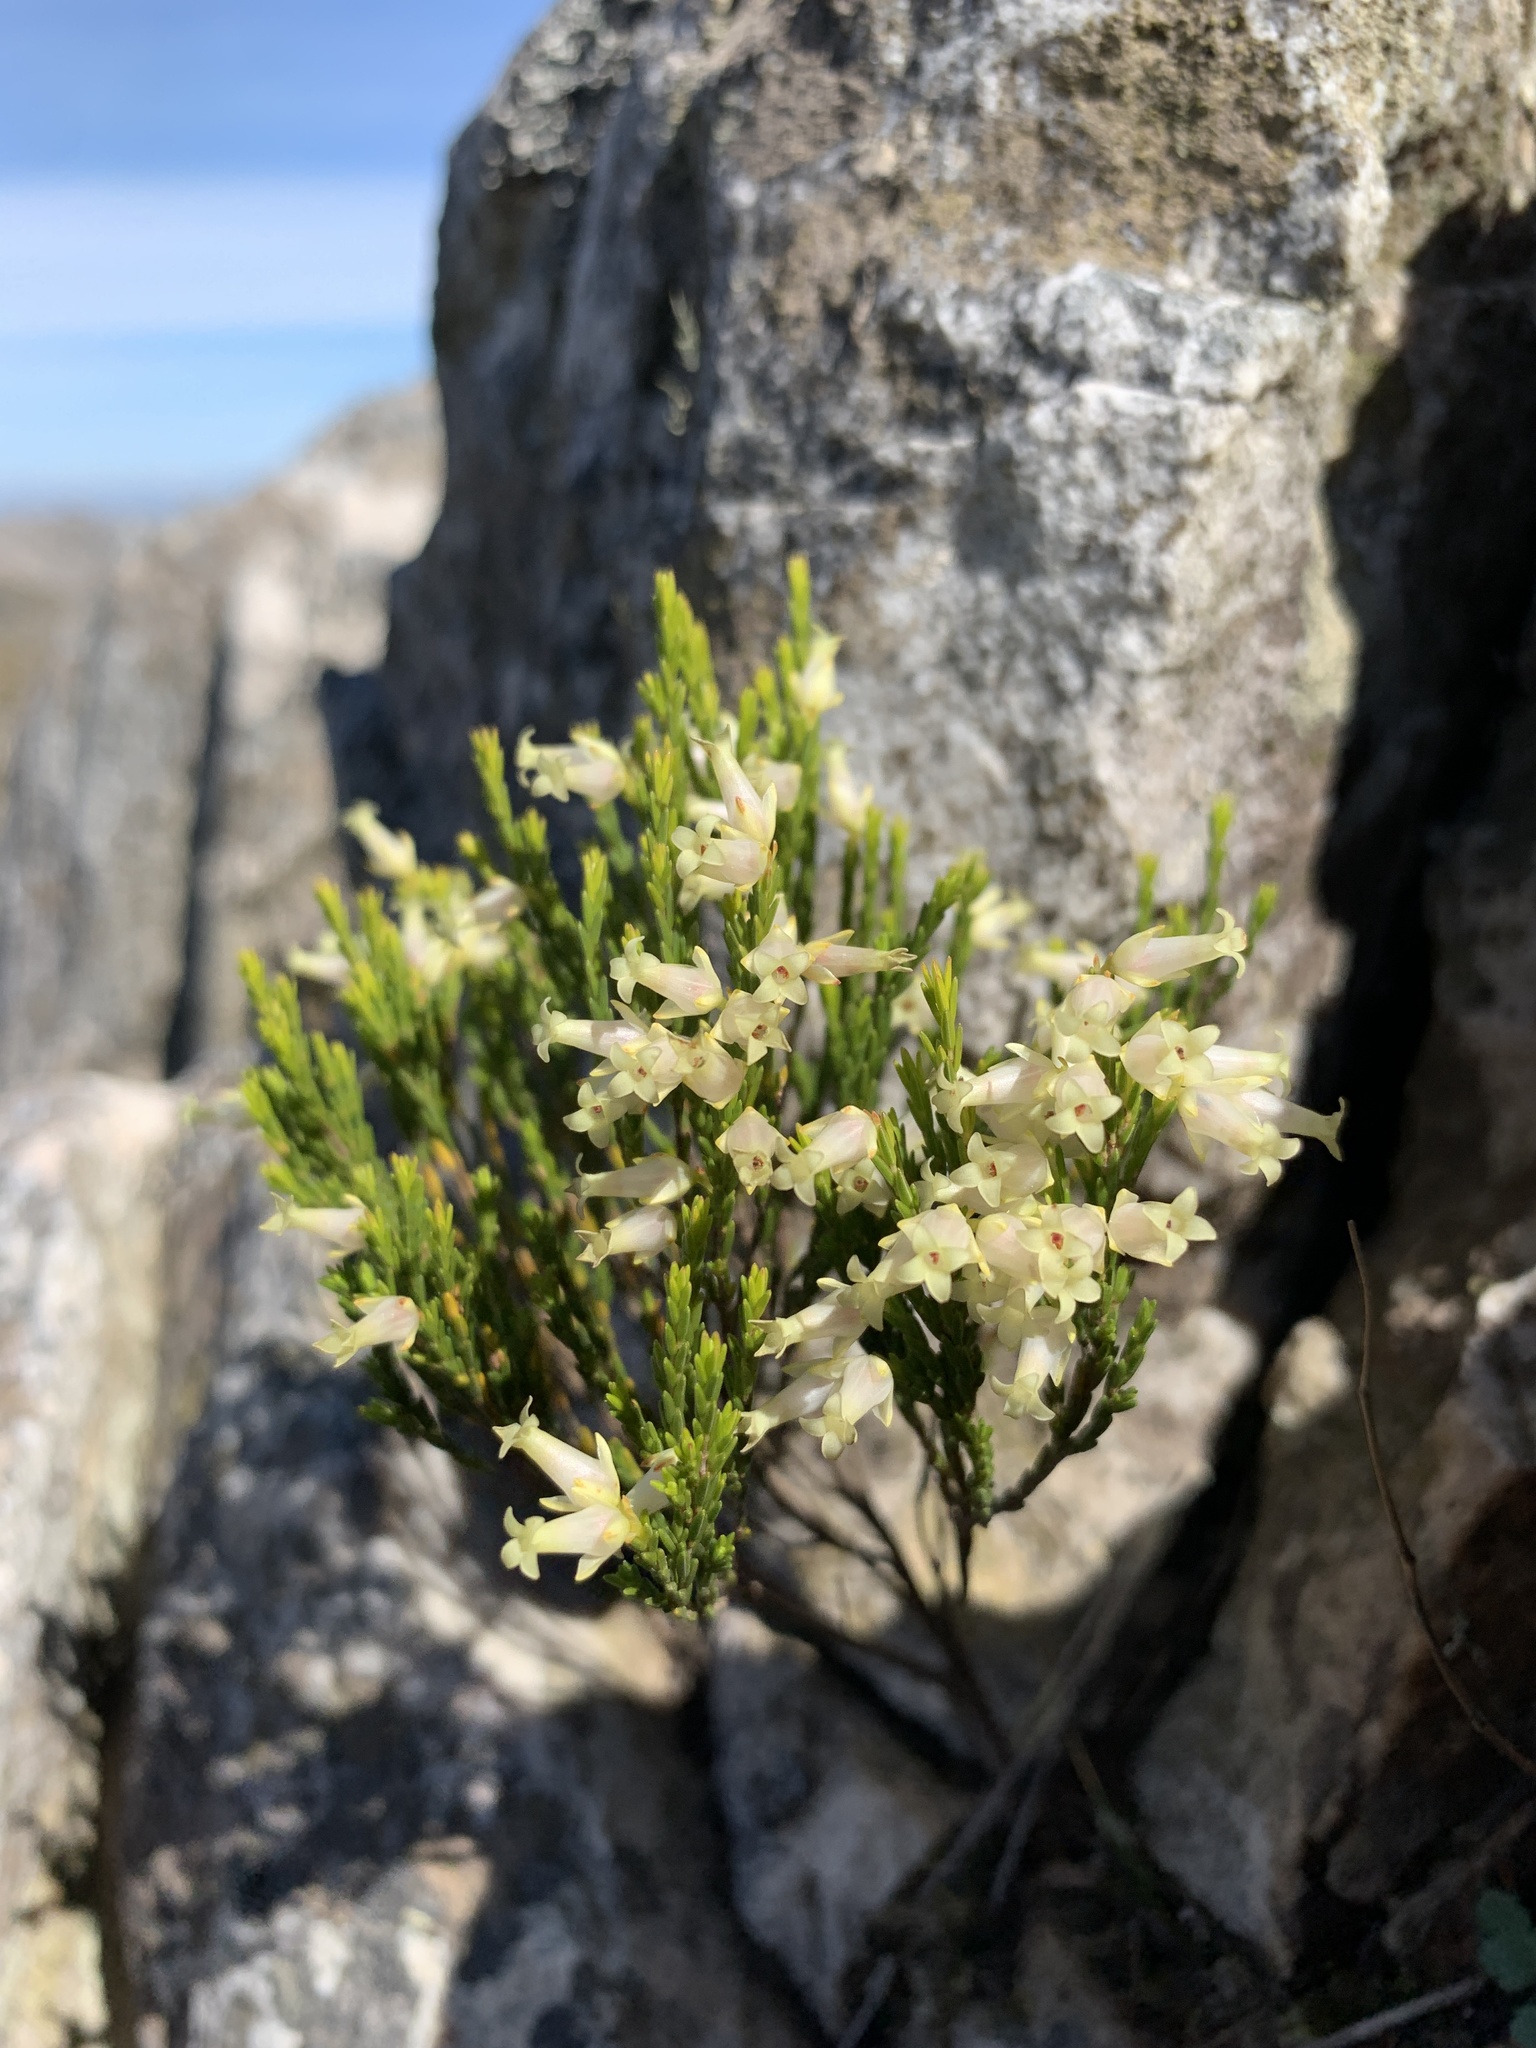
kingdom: Plantae
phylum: Tracheophyta
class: Magnoliopsida
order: Ericales
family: Ericaceae
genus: Erica
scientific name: Erica lutea
